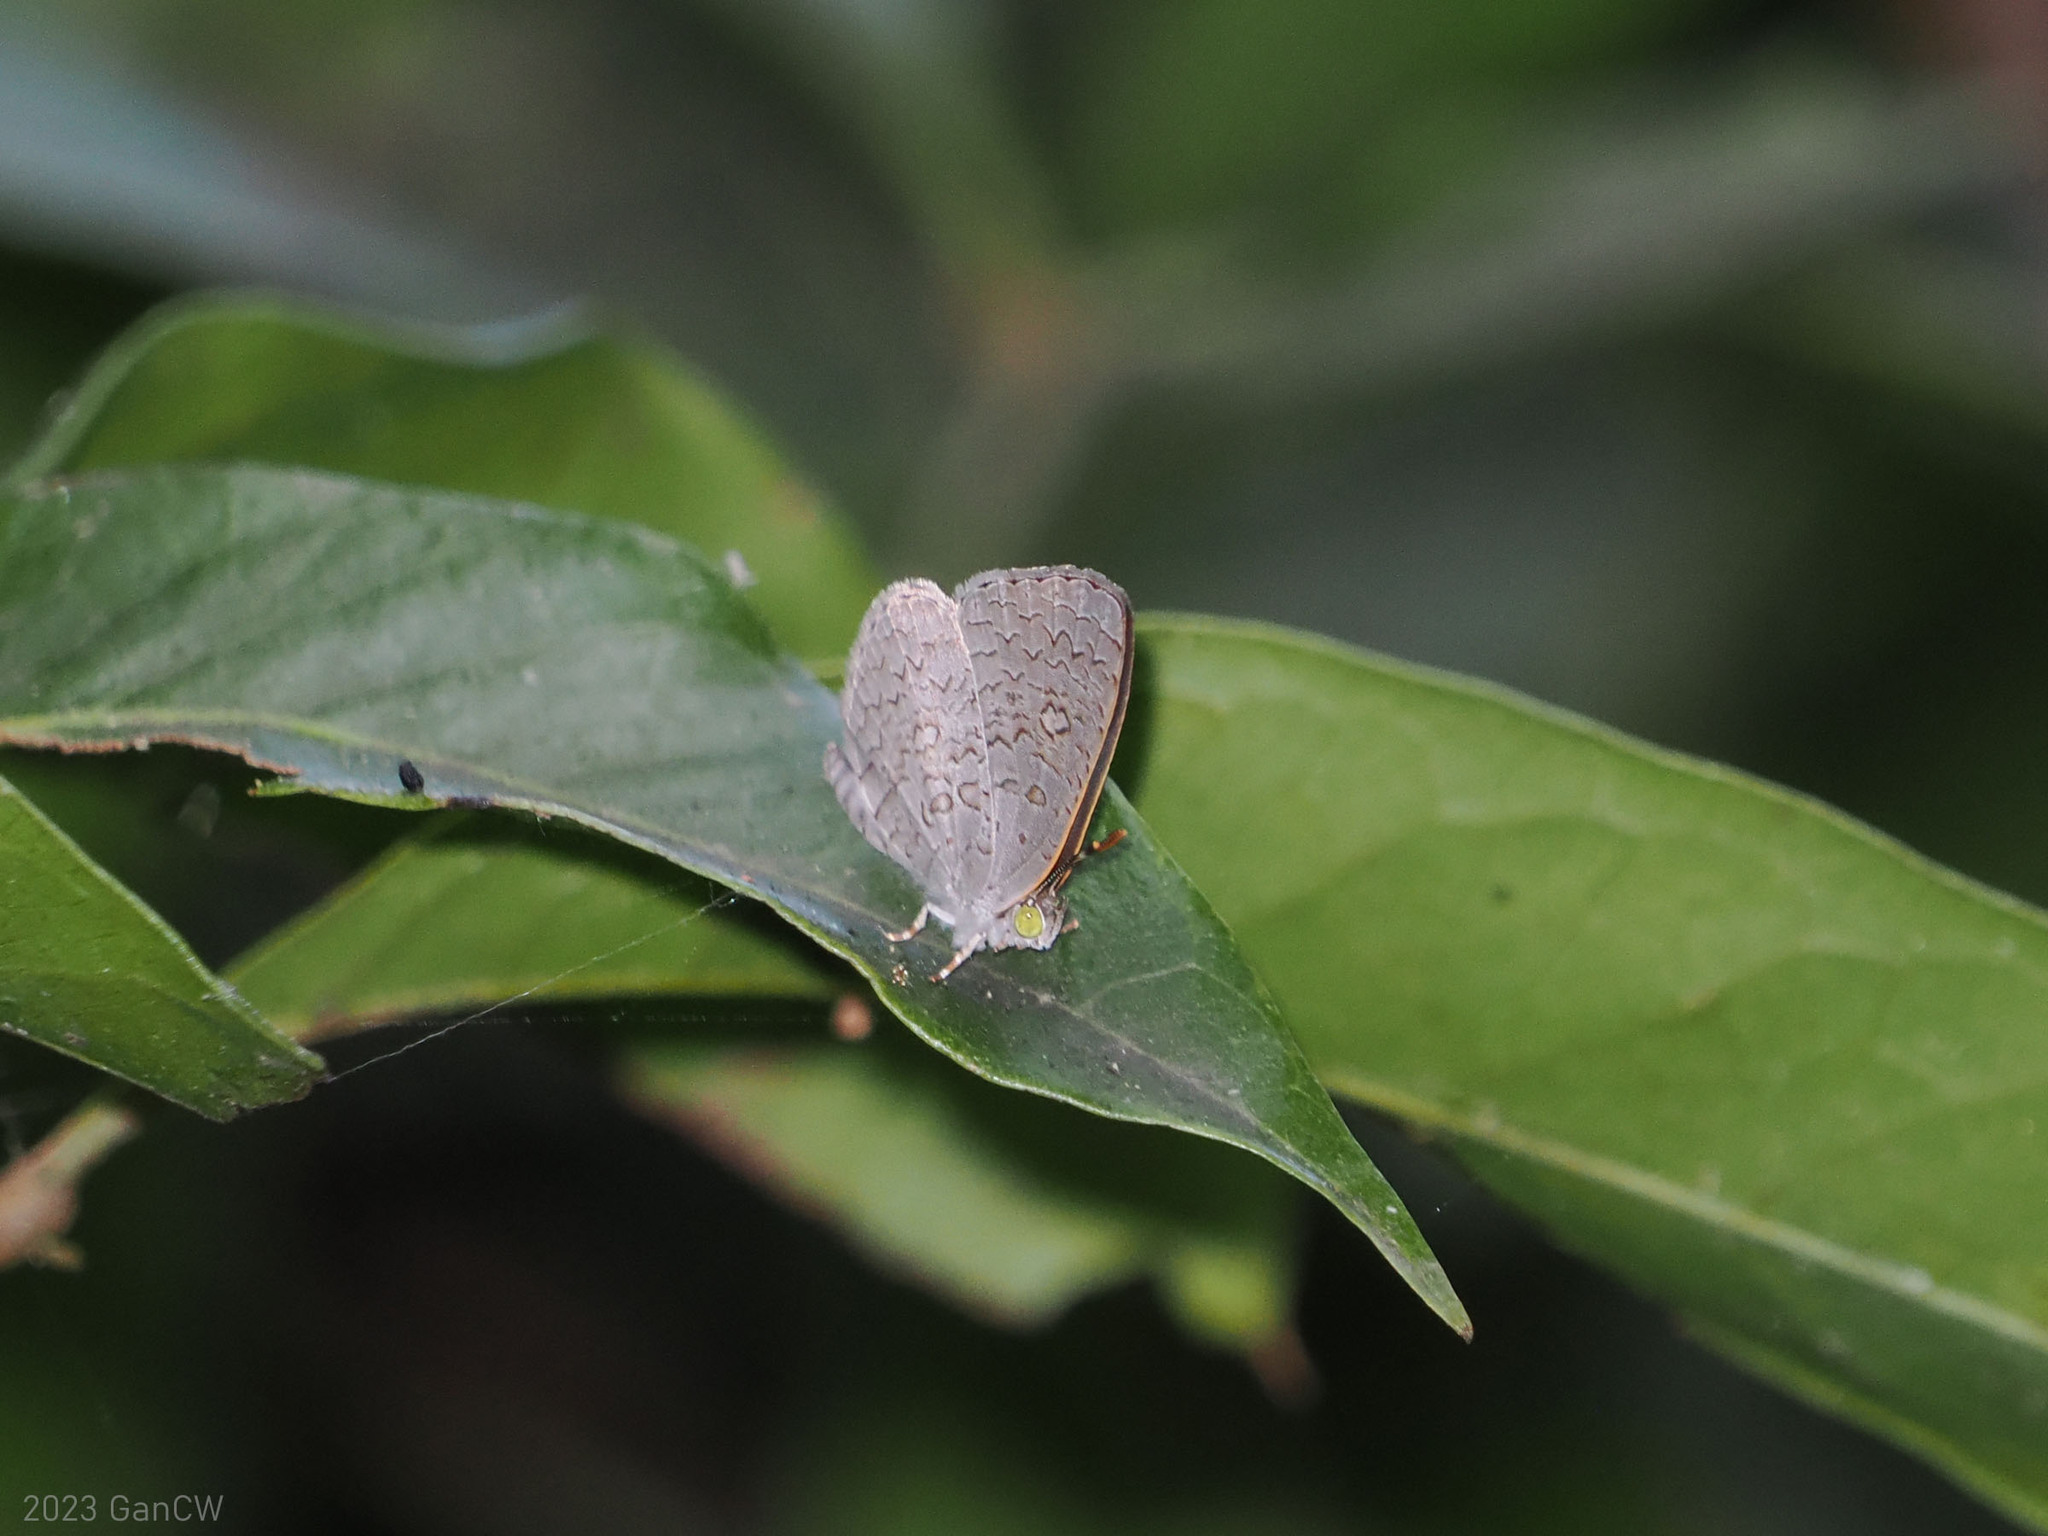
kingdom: Animalia
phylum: Arthropoda
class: Insecta
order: Lepidoptera
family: Lycaenidae
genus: Spalgis
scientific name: Spalgis epius
